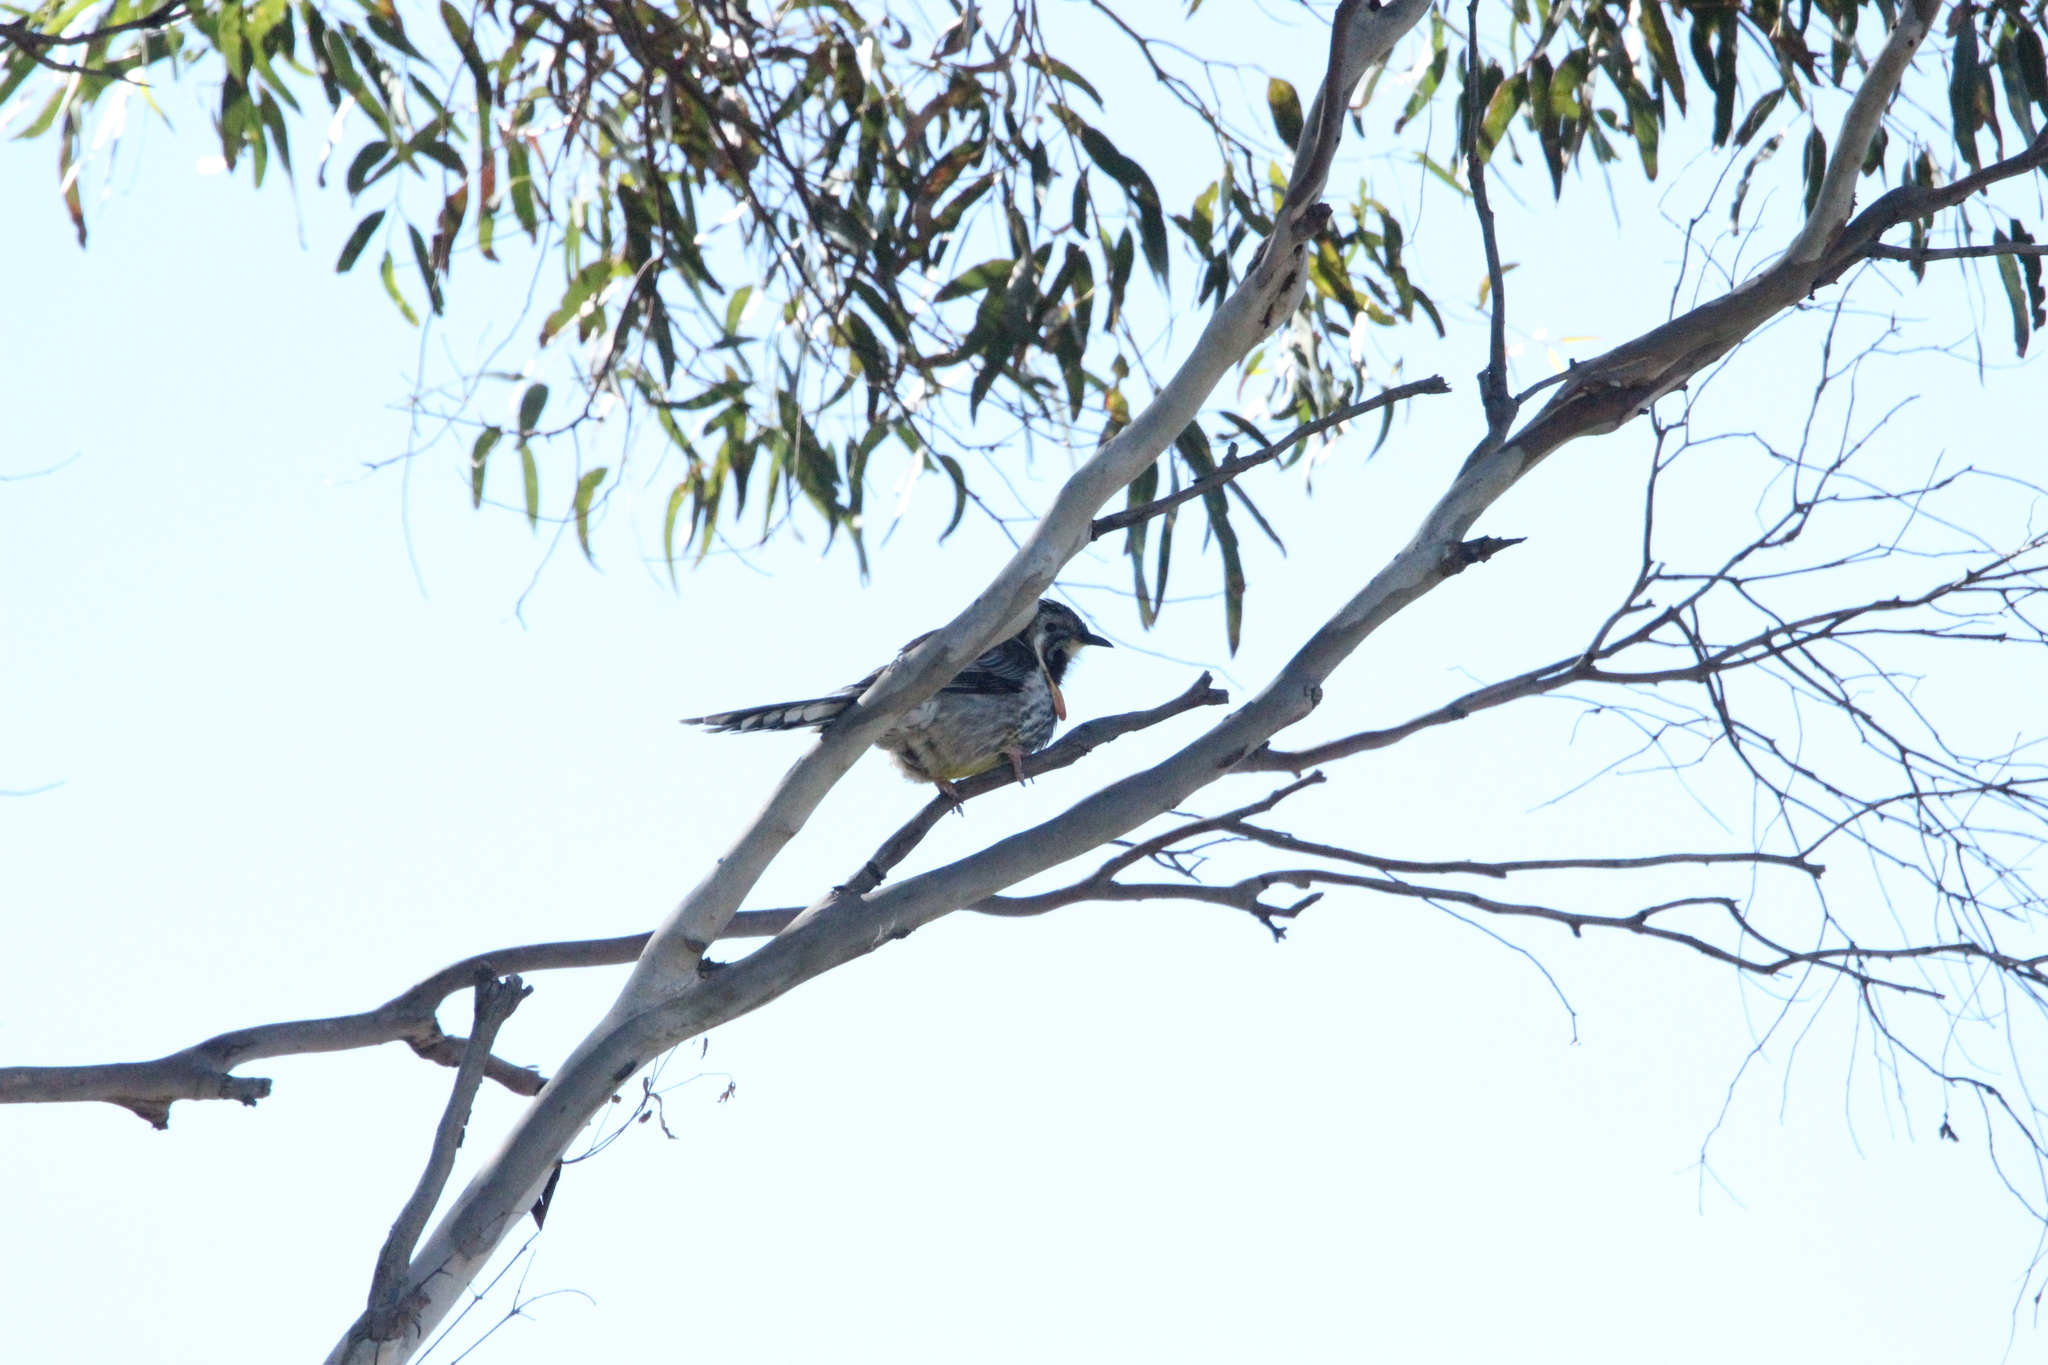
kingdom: Animalia
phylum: Chordata
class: Aves
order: Passeriformes
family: Meliphagidae
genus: Anthochaera
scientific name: Anthochaera paradoxa
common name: Yellow wattlebird
